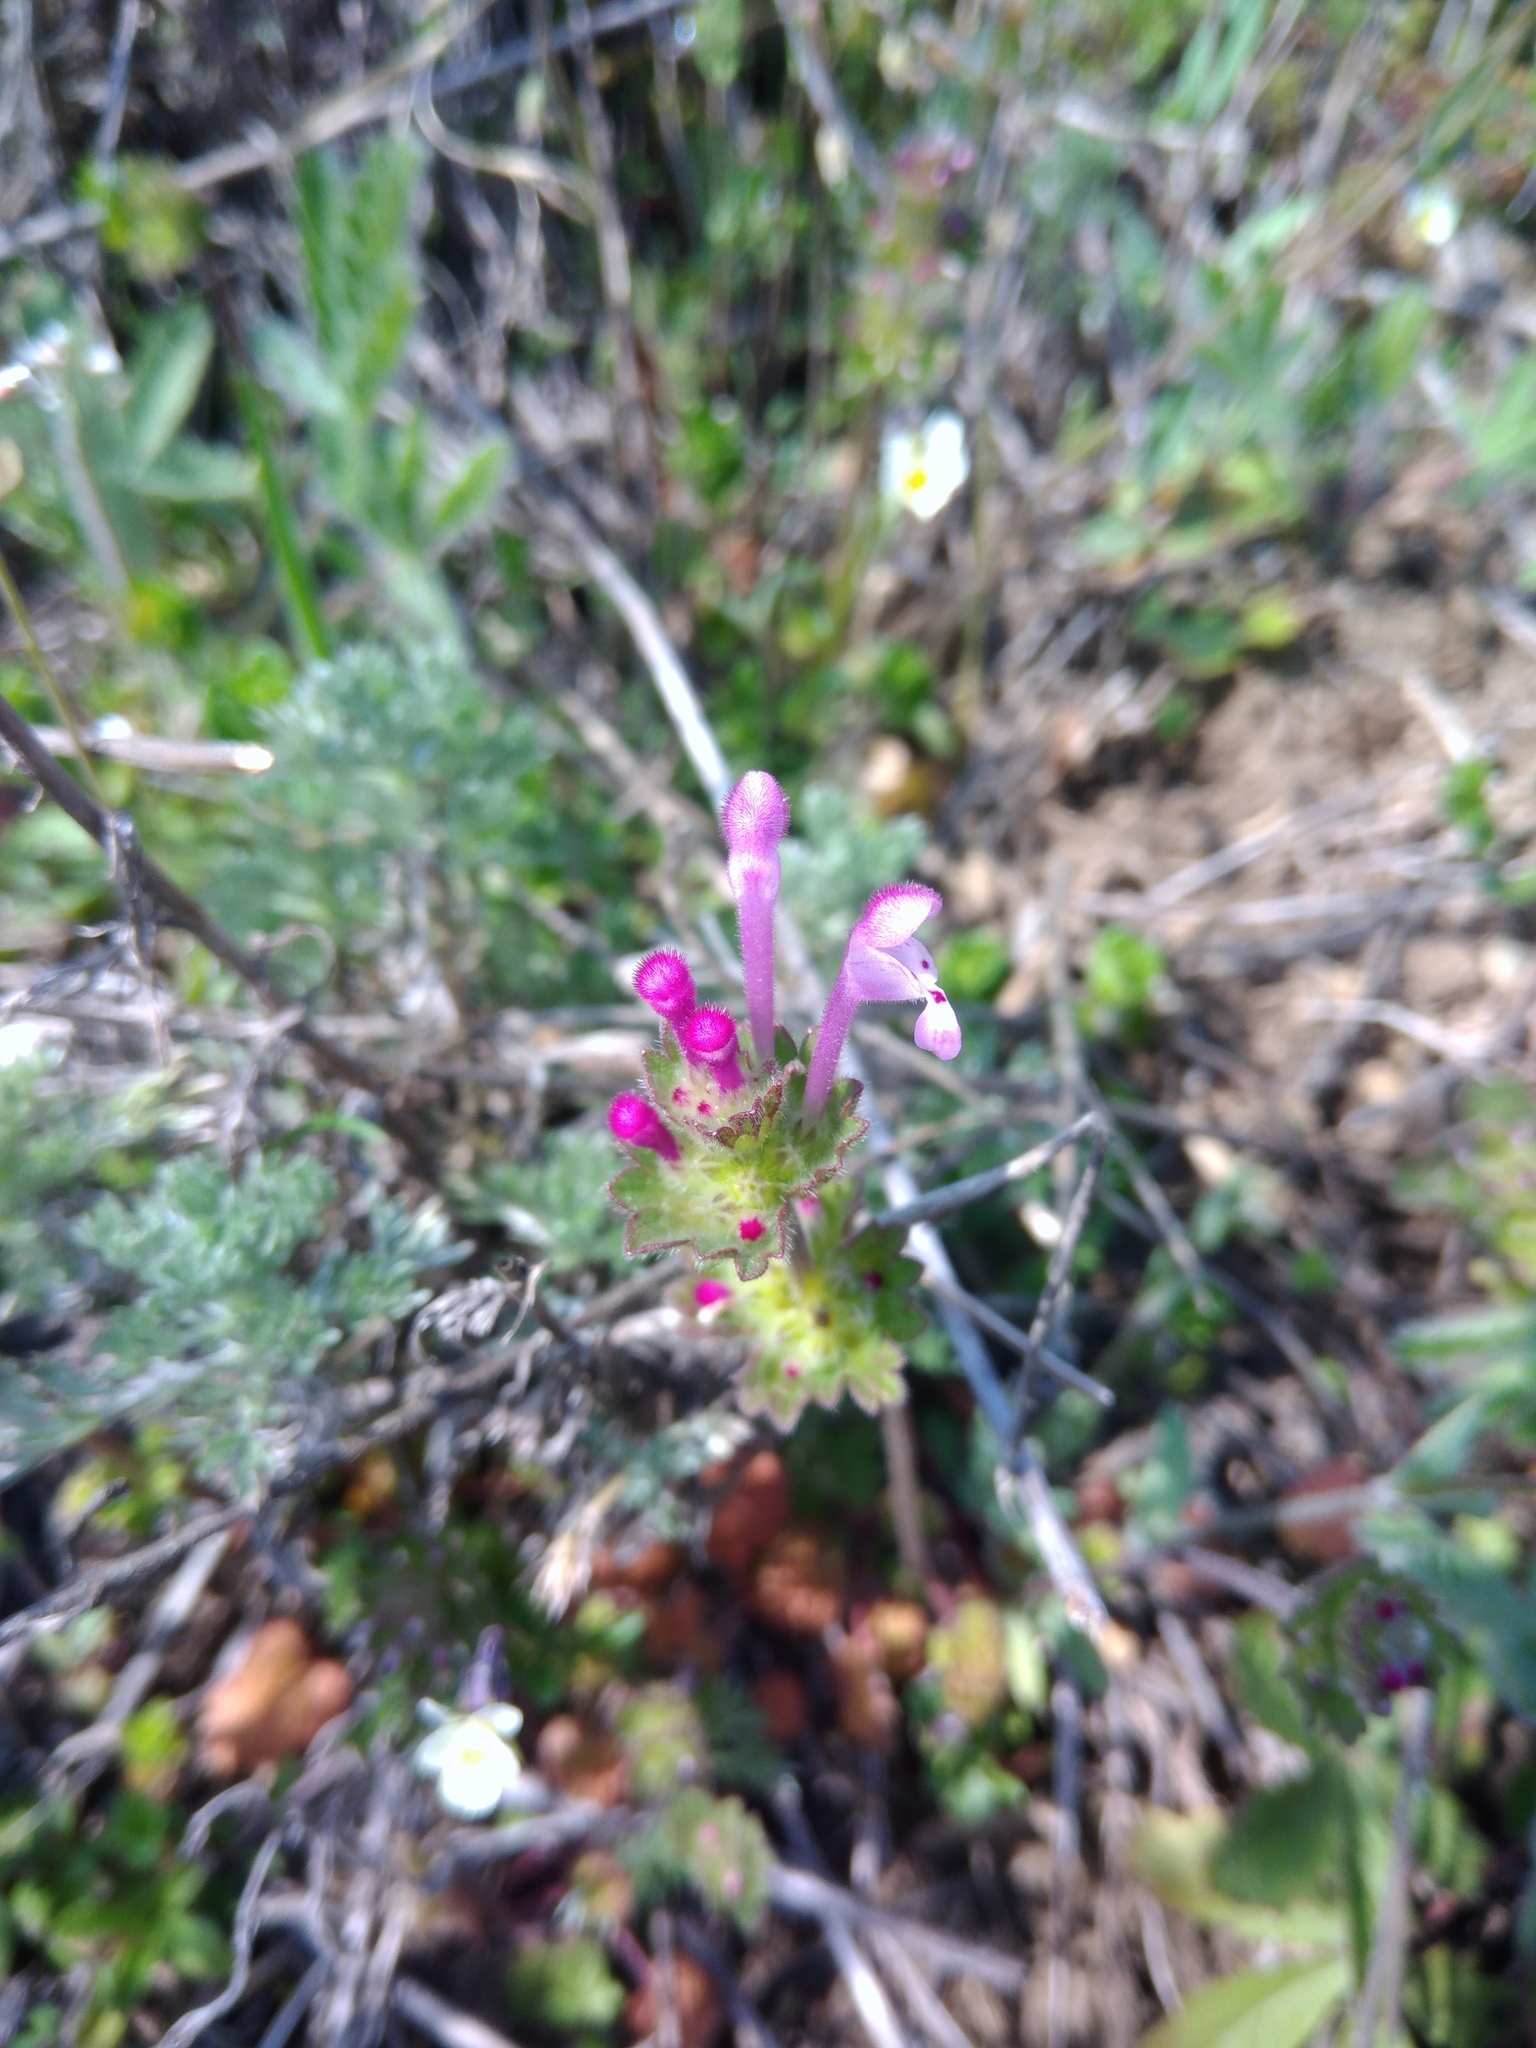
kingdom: Plantae
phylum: Tracheophyta
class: Magnoliopsida
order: Lamiales
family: Lamiaceae
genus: Lamium
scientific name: Lamium amplexicaule
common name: Henbit dead-nettle
